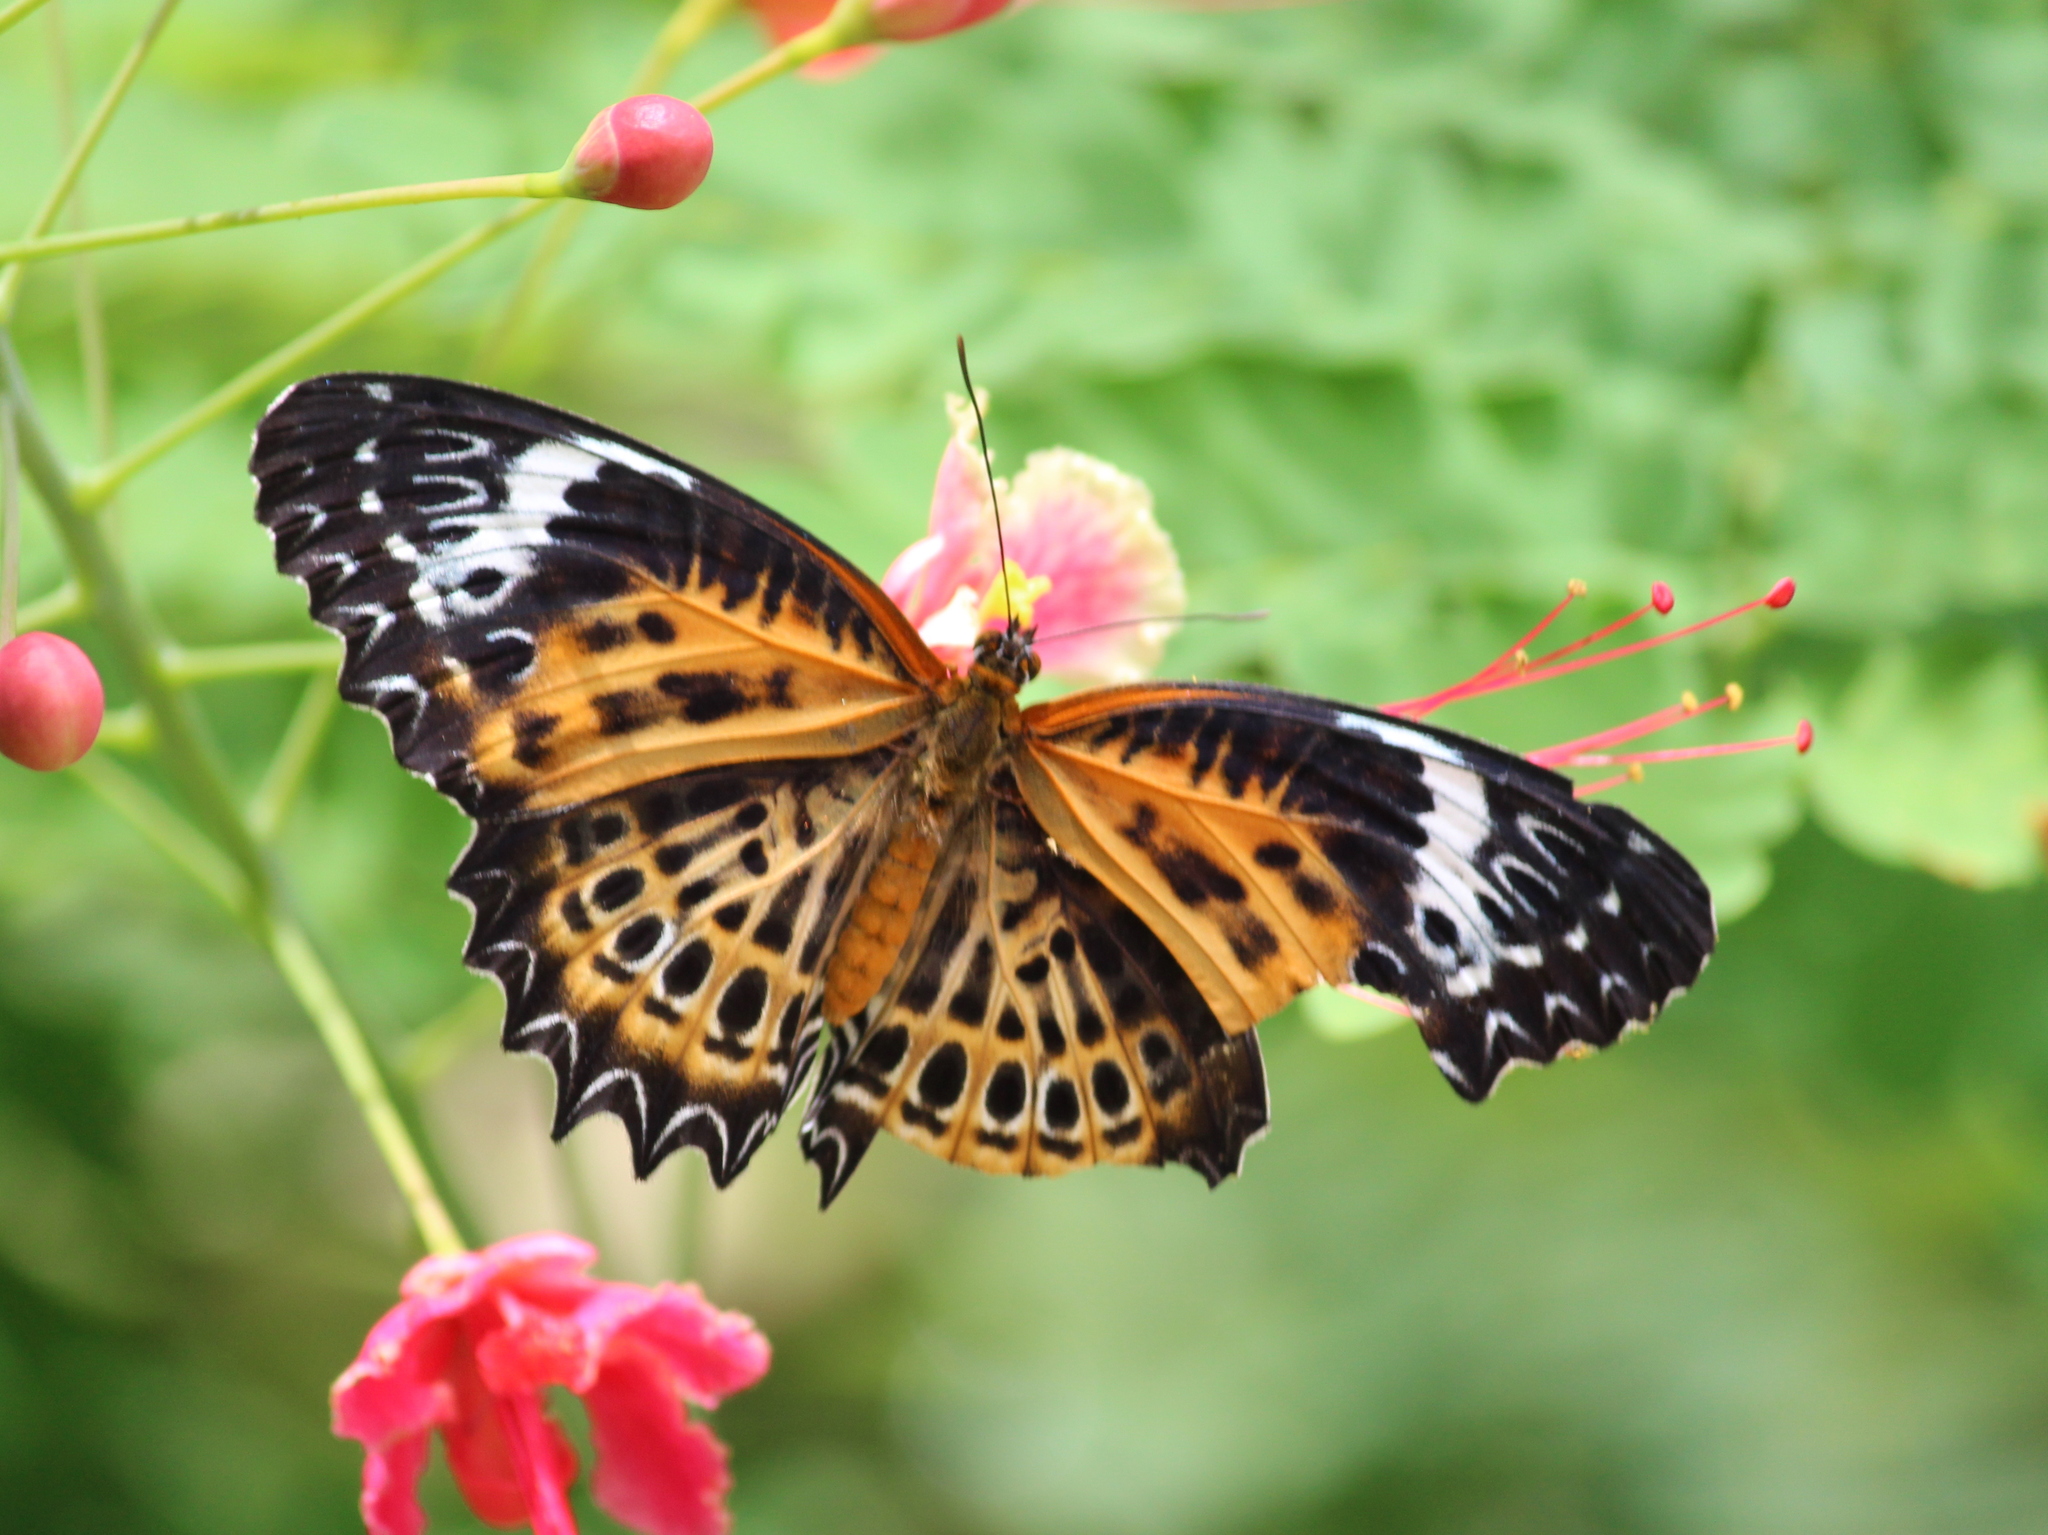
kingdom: Animalia
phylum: Arthropoda
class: Insecta
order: Lepidoptera
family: Nymphalidae
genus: Cethosia
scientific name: Cethosia
